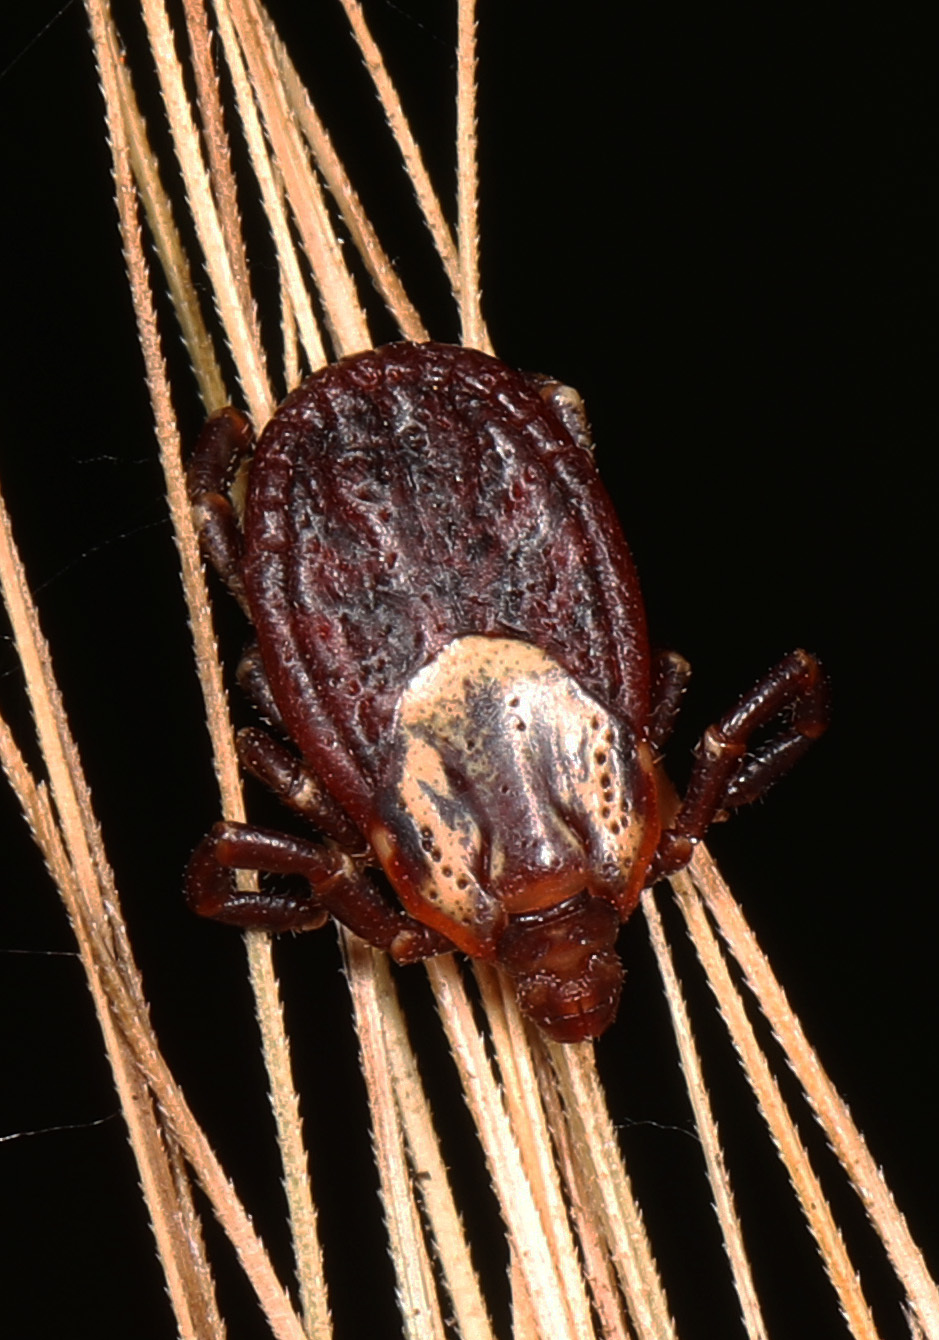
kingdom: Animalia
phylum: Arthropoda
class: Arachnida
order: Ixodida
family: Ixodidae
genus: Dermacentor
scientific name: Dermacentor variabilis
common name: American dog tick
